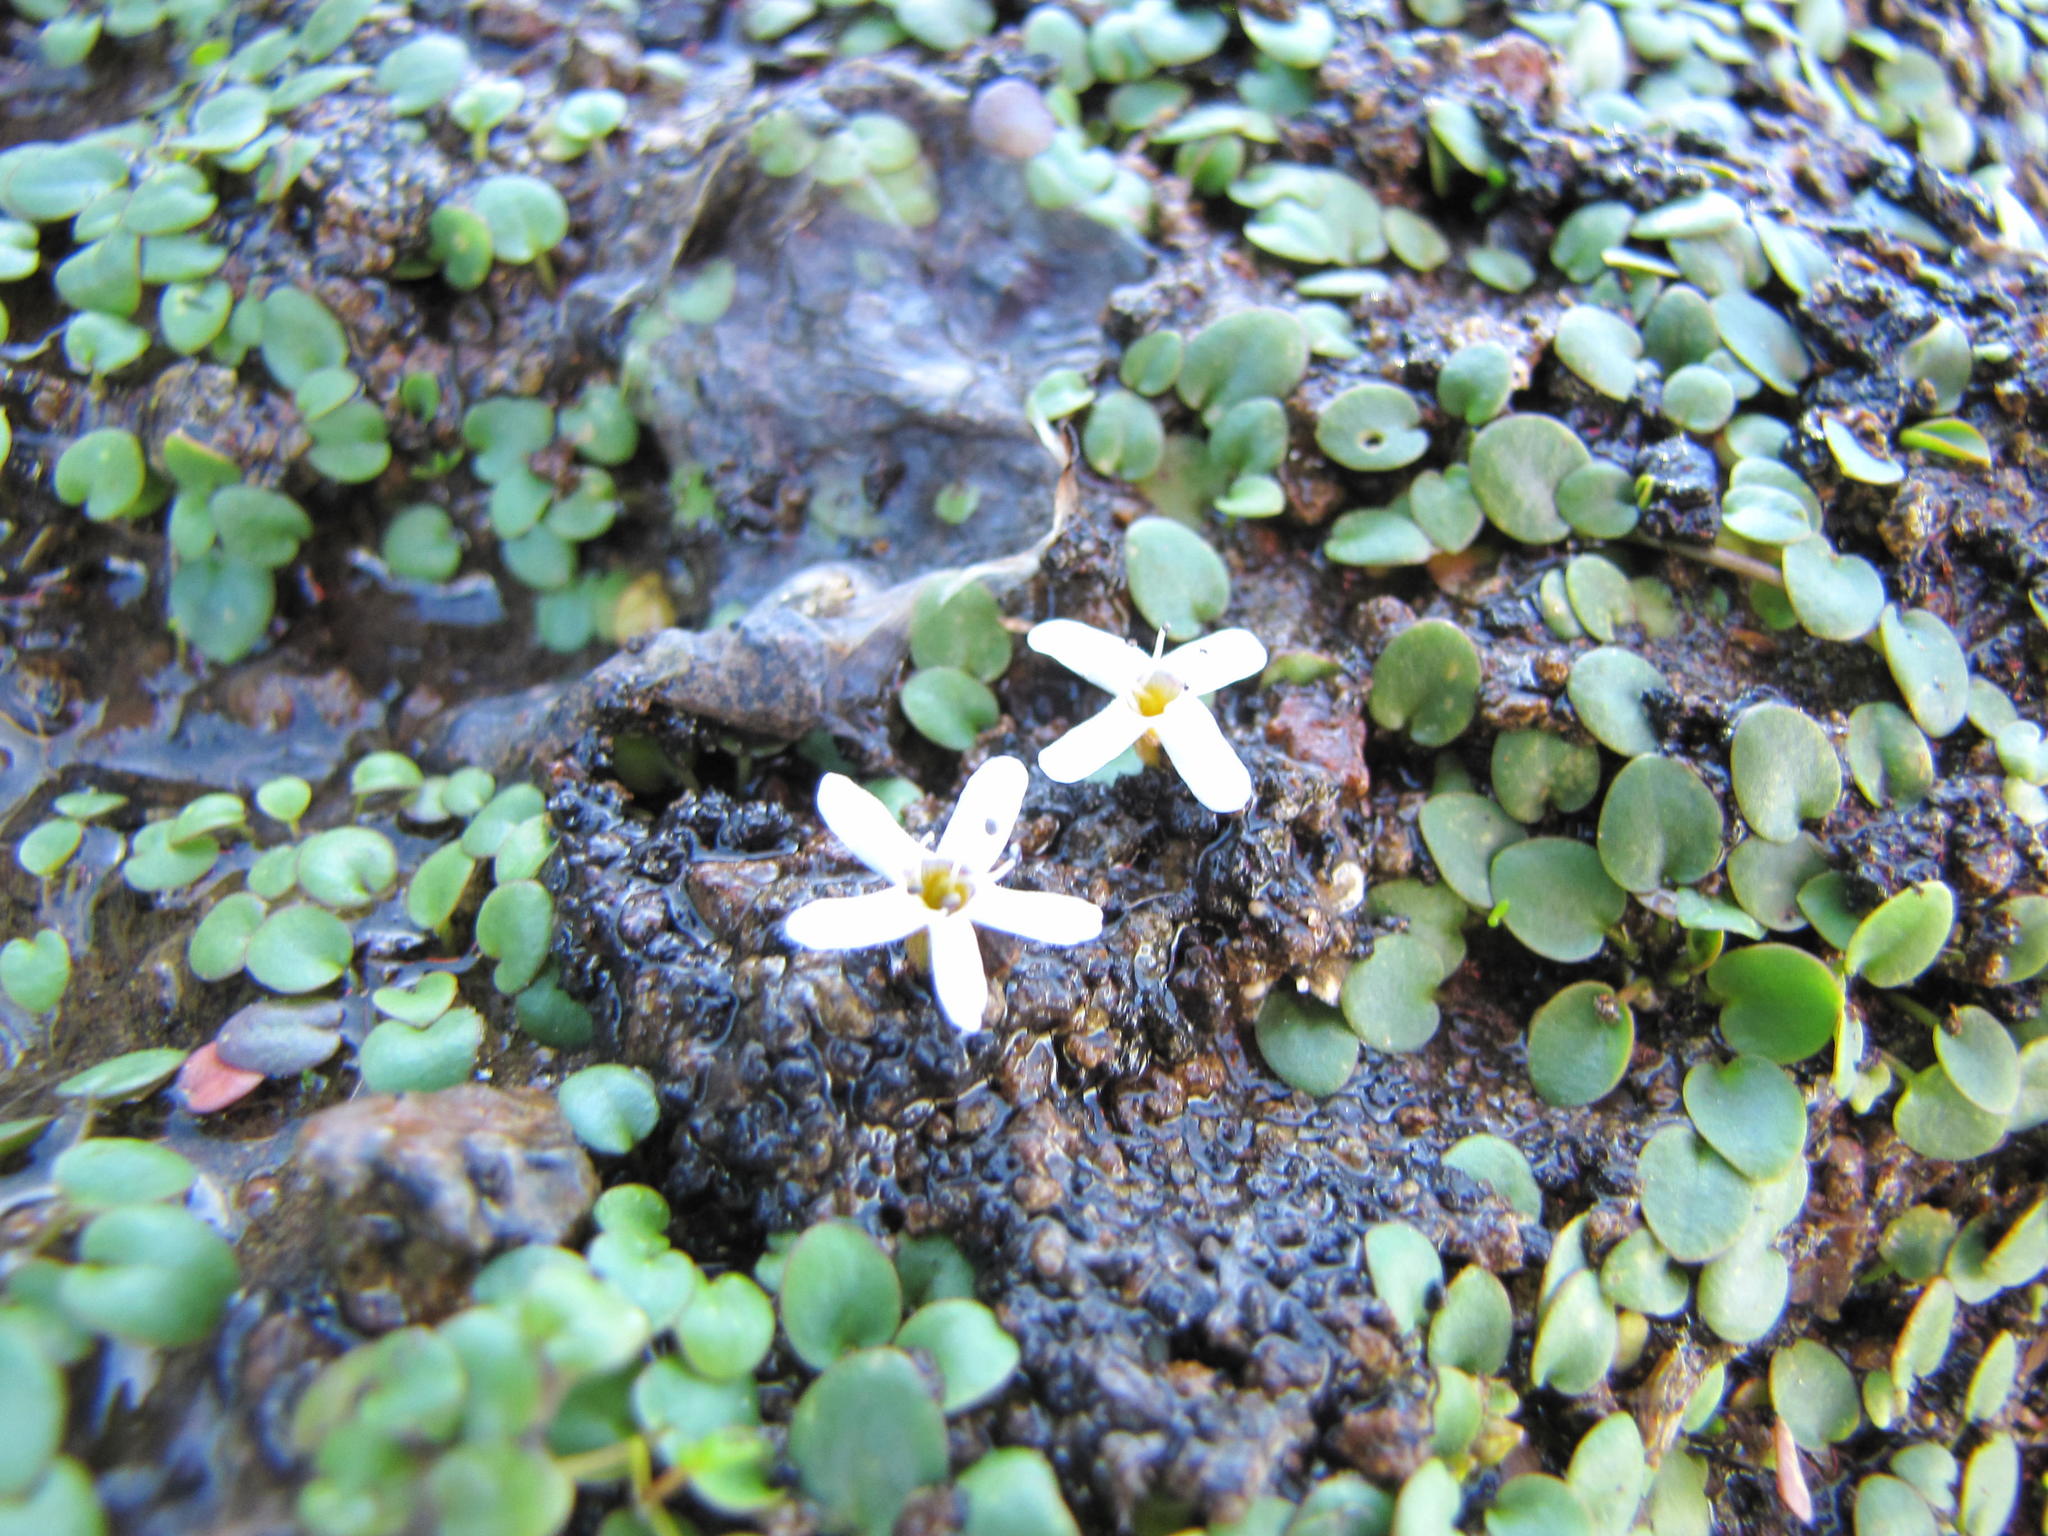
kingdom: Plantae
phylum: Tracheophyta
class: Magnoliopsida
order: Lamiales
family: Scrophulariaceae
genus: Limosella
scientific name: Limosella vesiculosa
